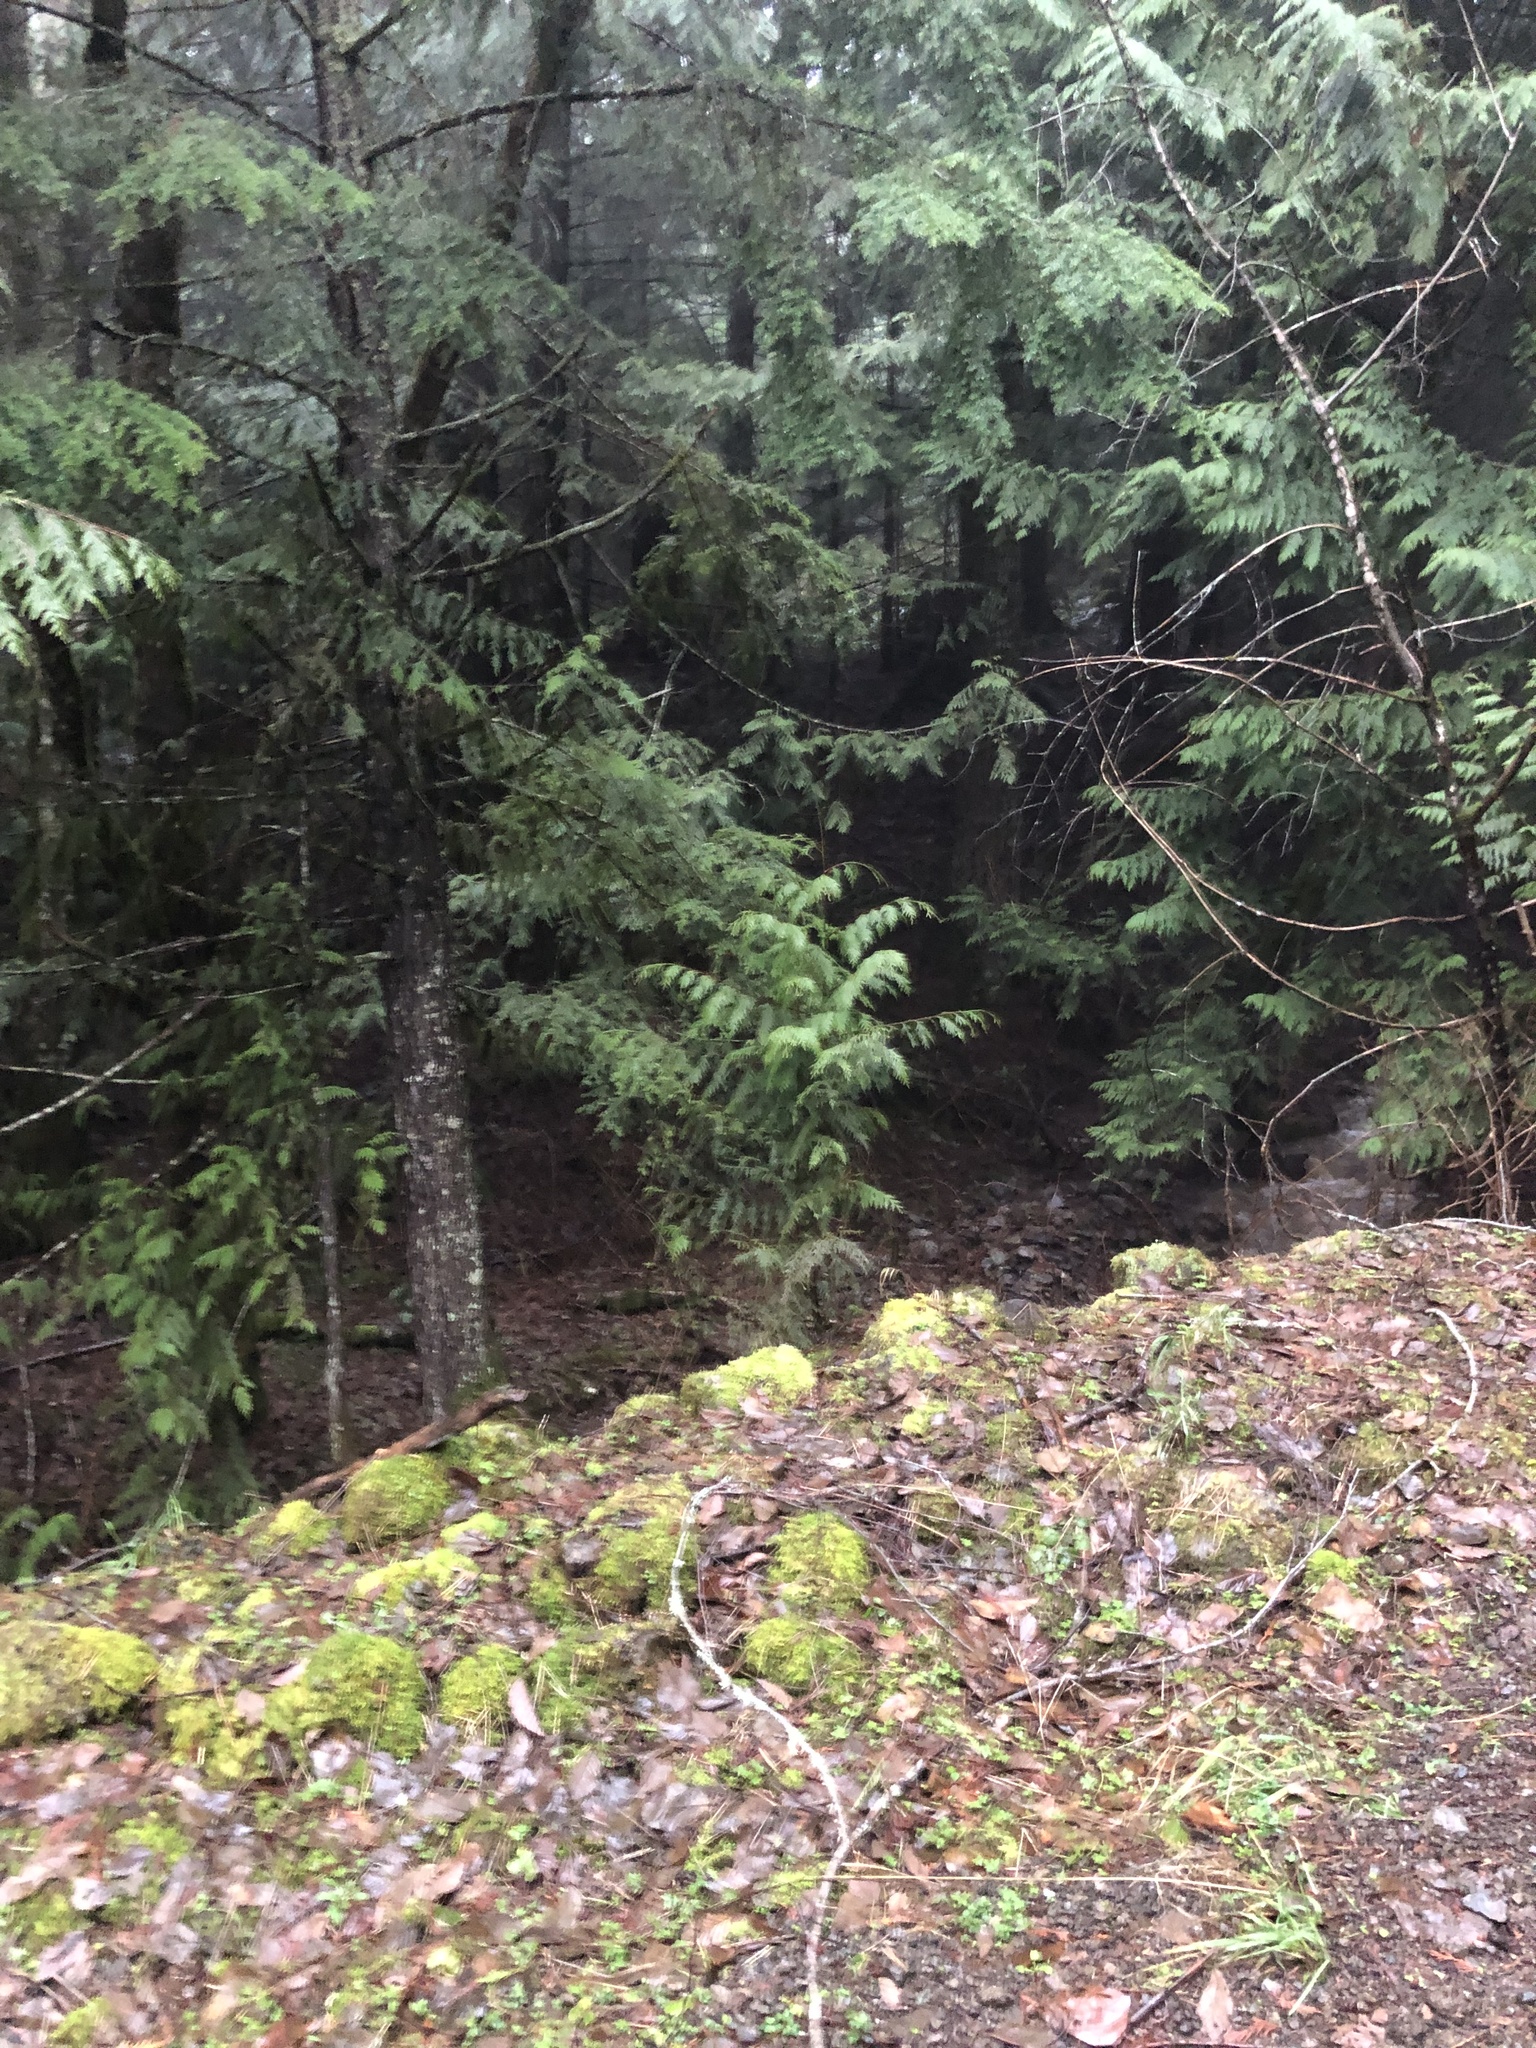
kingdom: Plantae
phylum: Tracheophyta
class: Pinopsida
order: Pinales
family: Cupressaceae
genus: Thuja
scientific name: Thuja plicata
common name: Western red-cedar
